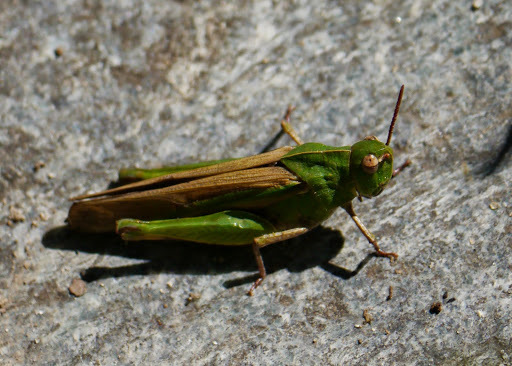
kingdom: Animalia
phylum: Arthropoda
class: Insecta
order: Orthoptera
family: Acrididae
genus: Chortophaga
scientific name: Chortophaga viridifasciata
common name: Green-striped grasshopper
